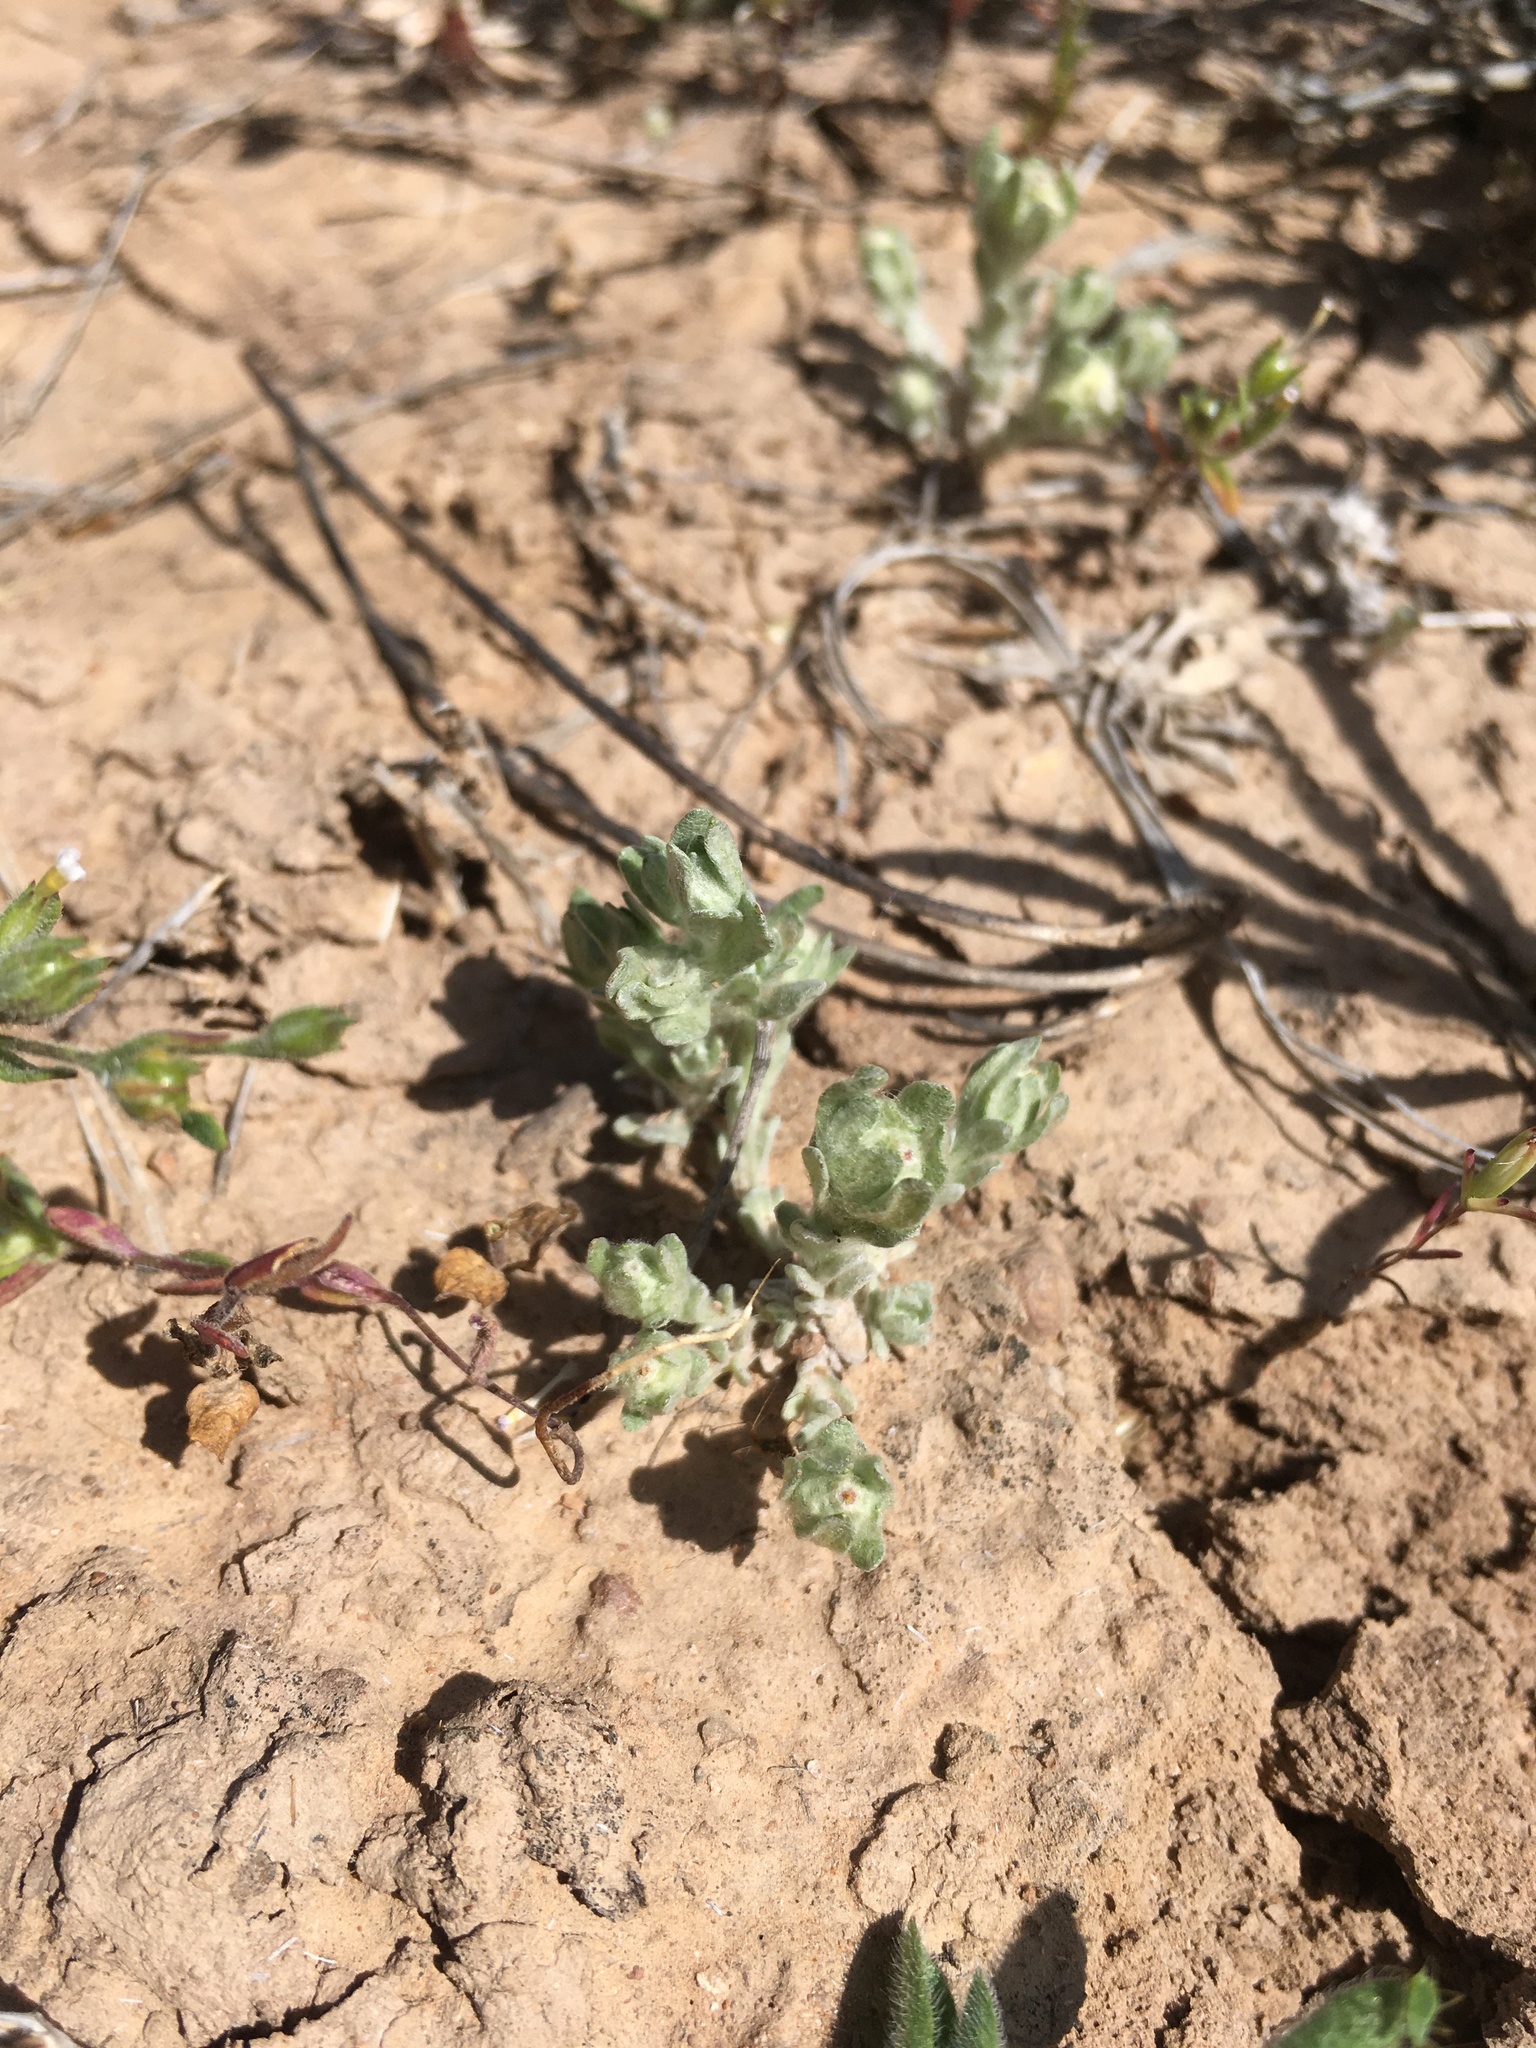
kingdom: Plantae
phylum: Tracheophyta
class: Magnoliopsida
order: Asterales
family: Asteraceae
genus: Diaperia
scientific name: Diaperia verna
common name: Many-stem rabbit-tobacco
